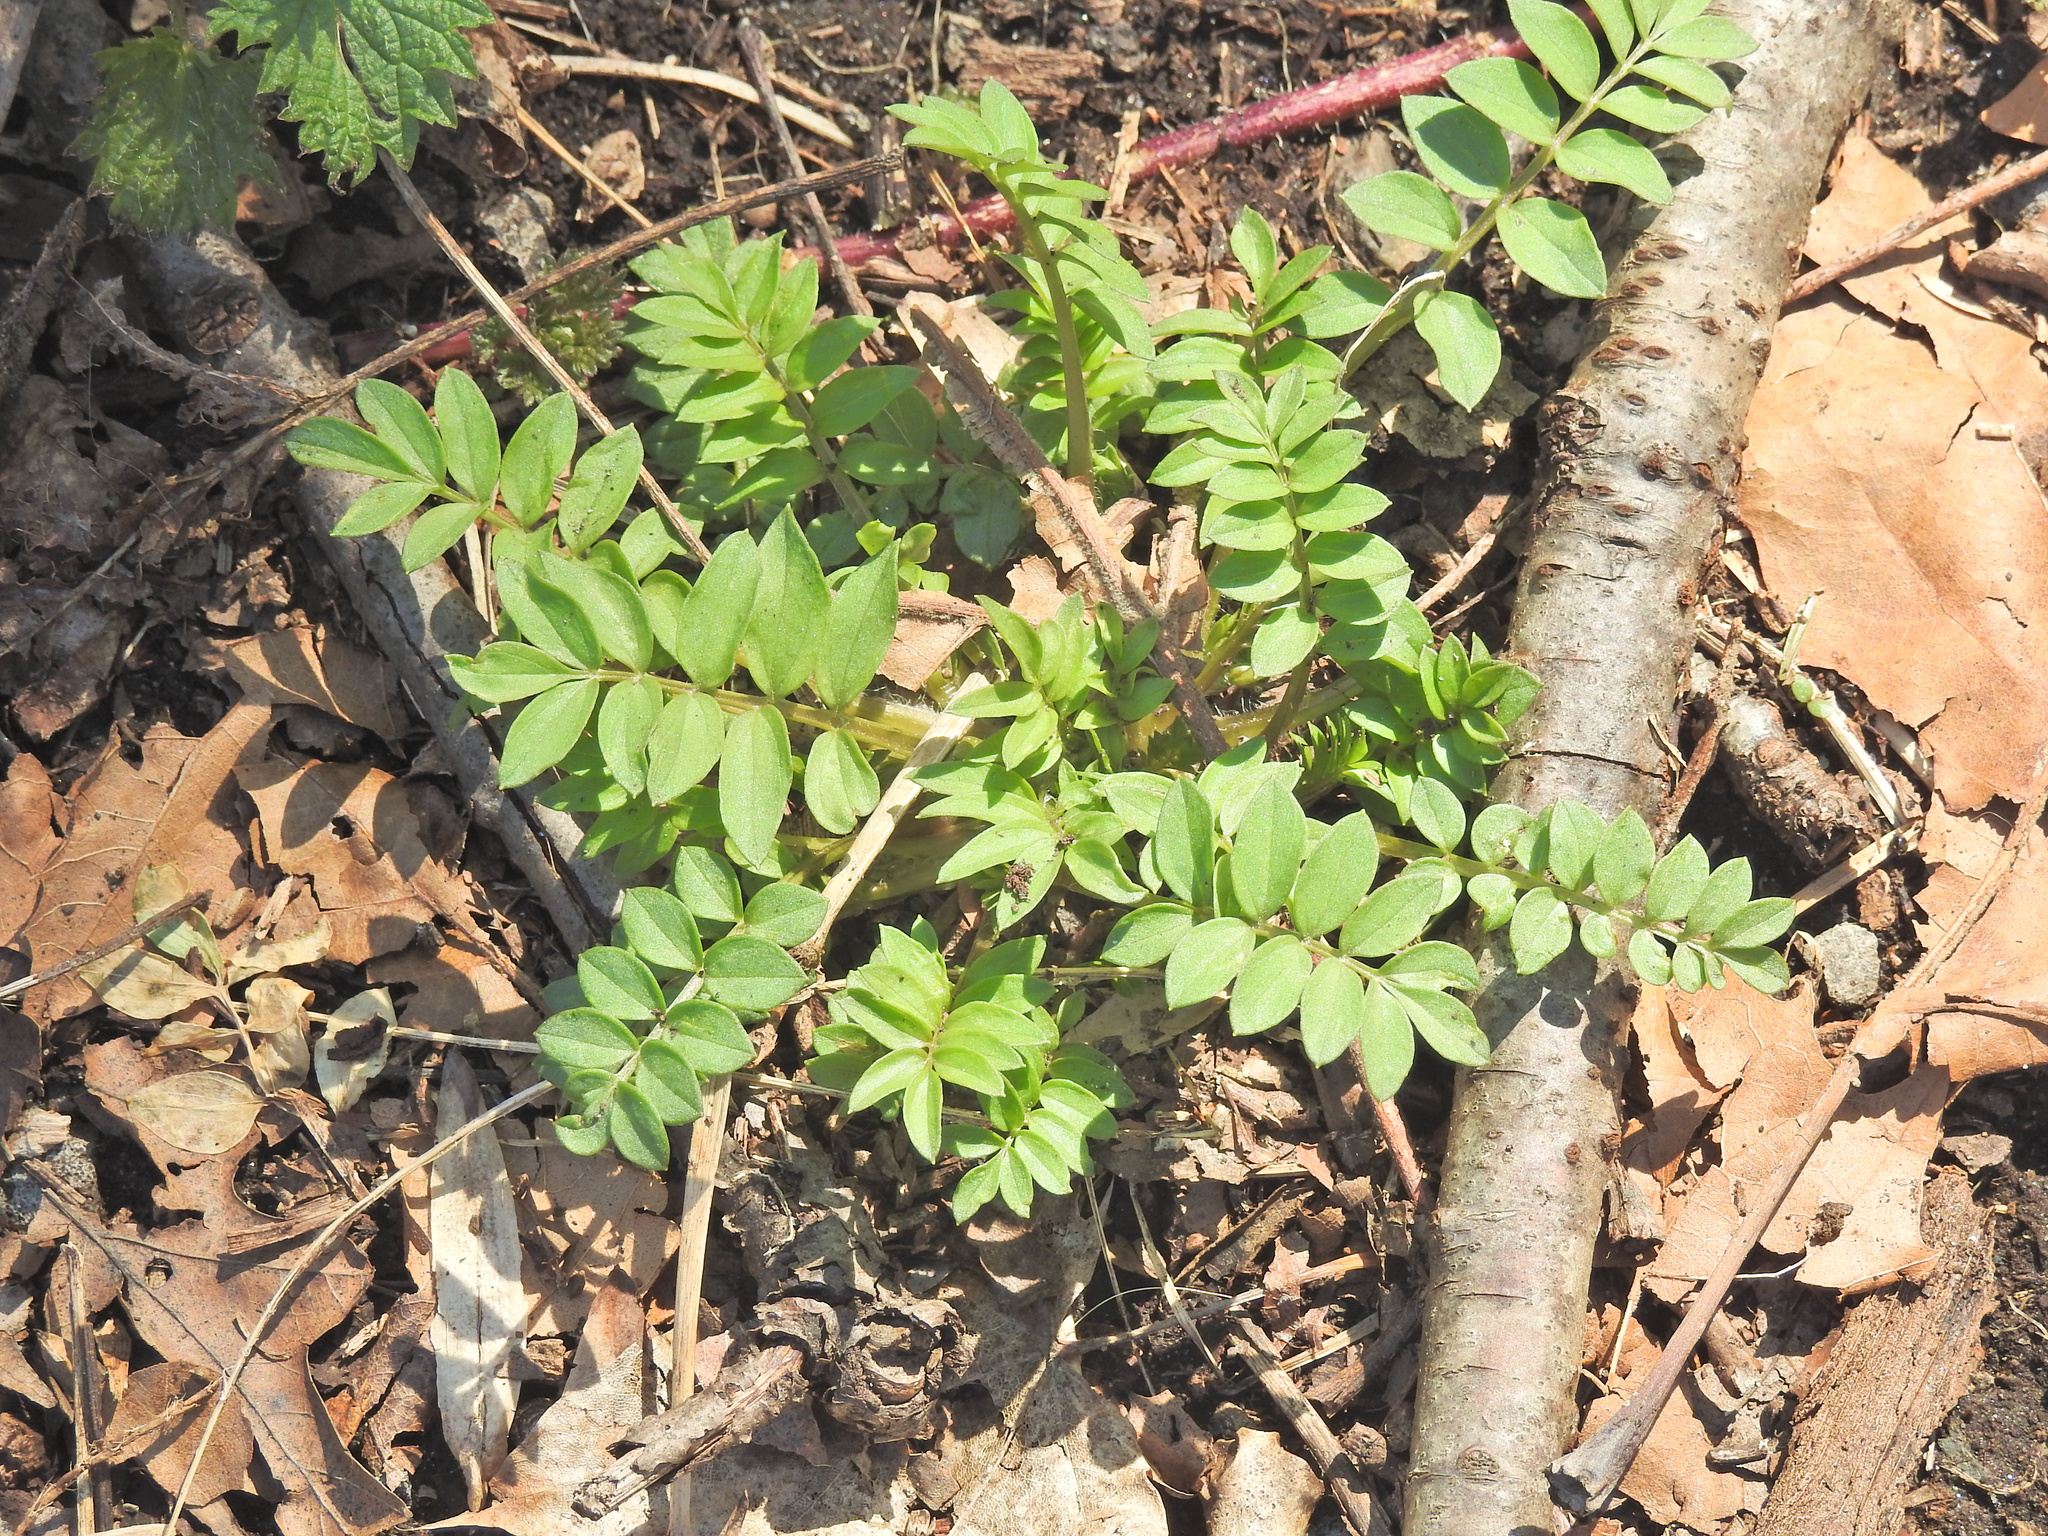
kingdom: Plantae
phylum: Tracheophyta
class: Magnoliopsida
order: Ericales
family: Polemoniaceae
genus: Polemonium
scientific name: Polemonium reptans
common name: Creeping jacob's-ladder
